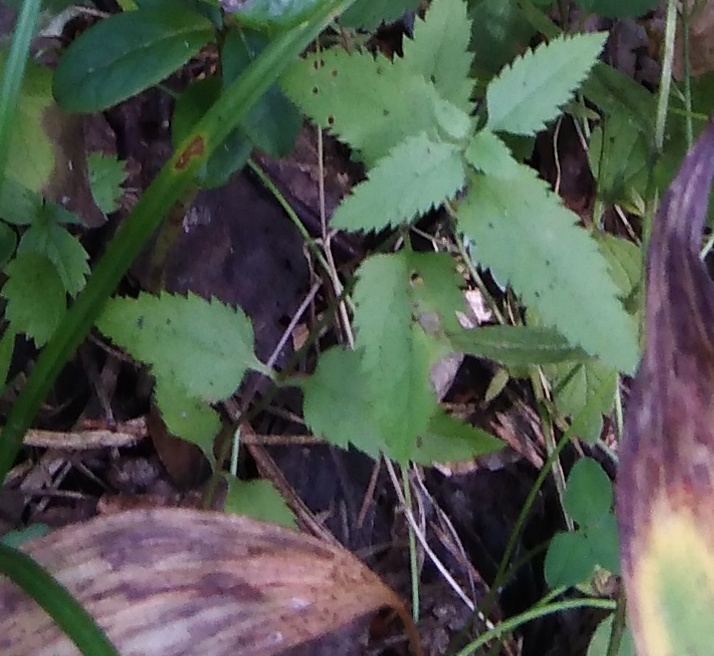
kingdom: Plantae
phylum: Tracheophyta
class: Magnoliopsida
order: Lamiales
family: Plantaginaceae
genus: Veronica
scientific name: Veronica longifolia
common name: Garden speedwell
